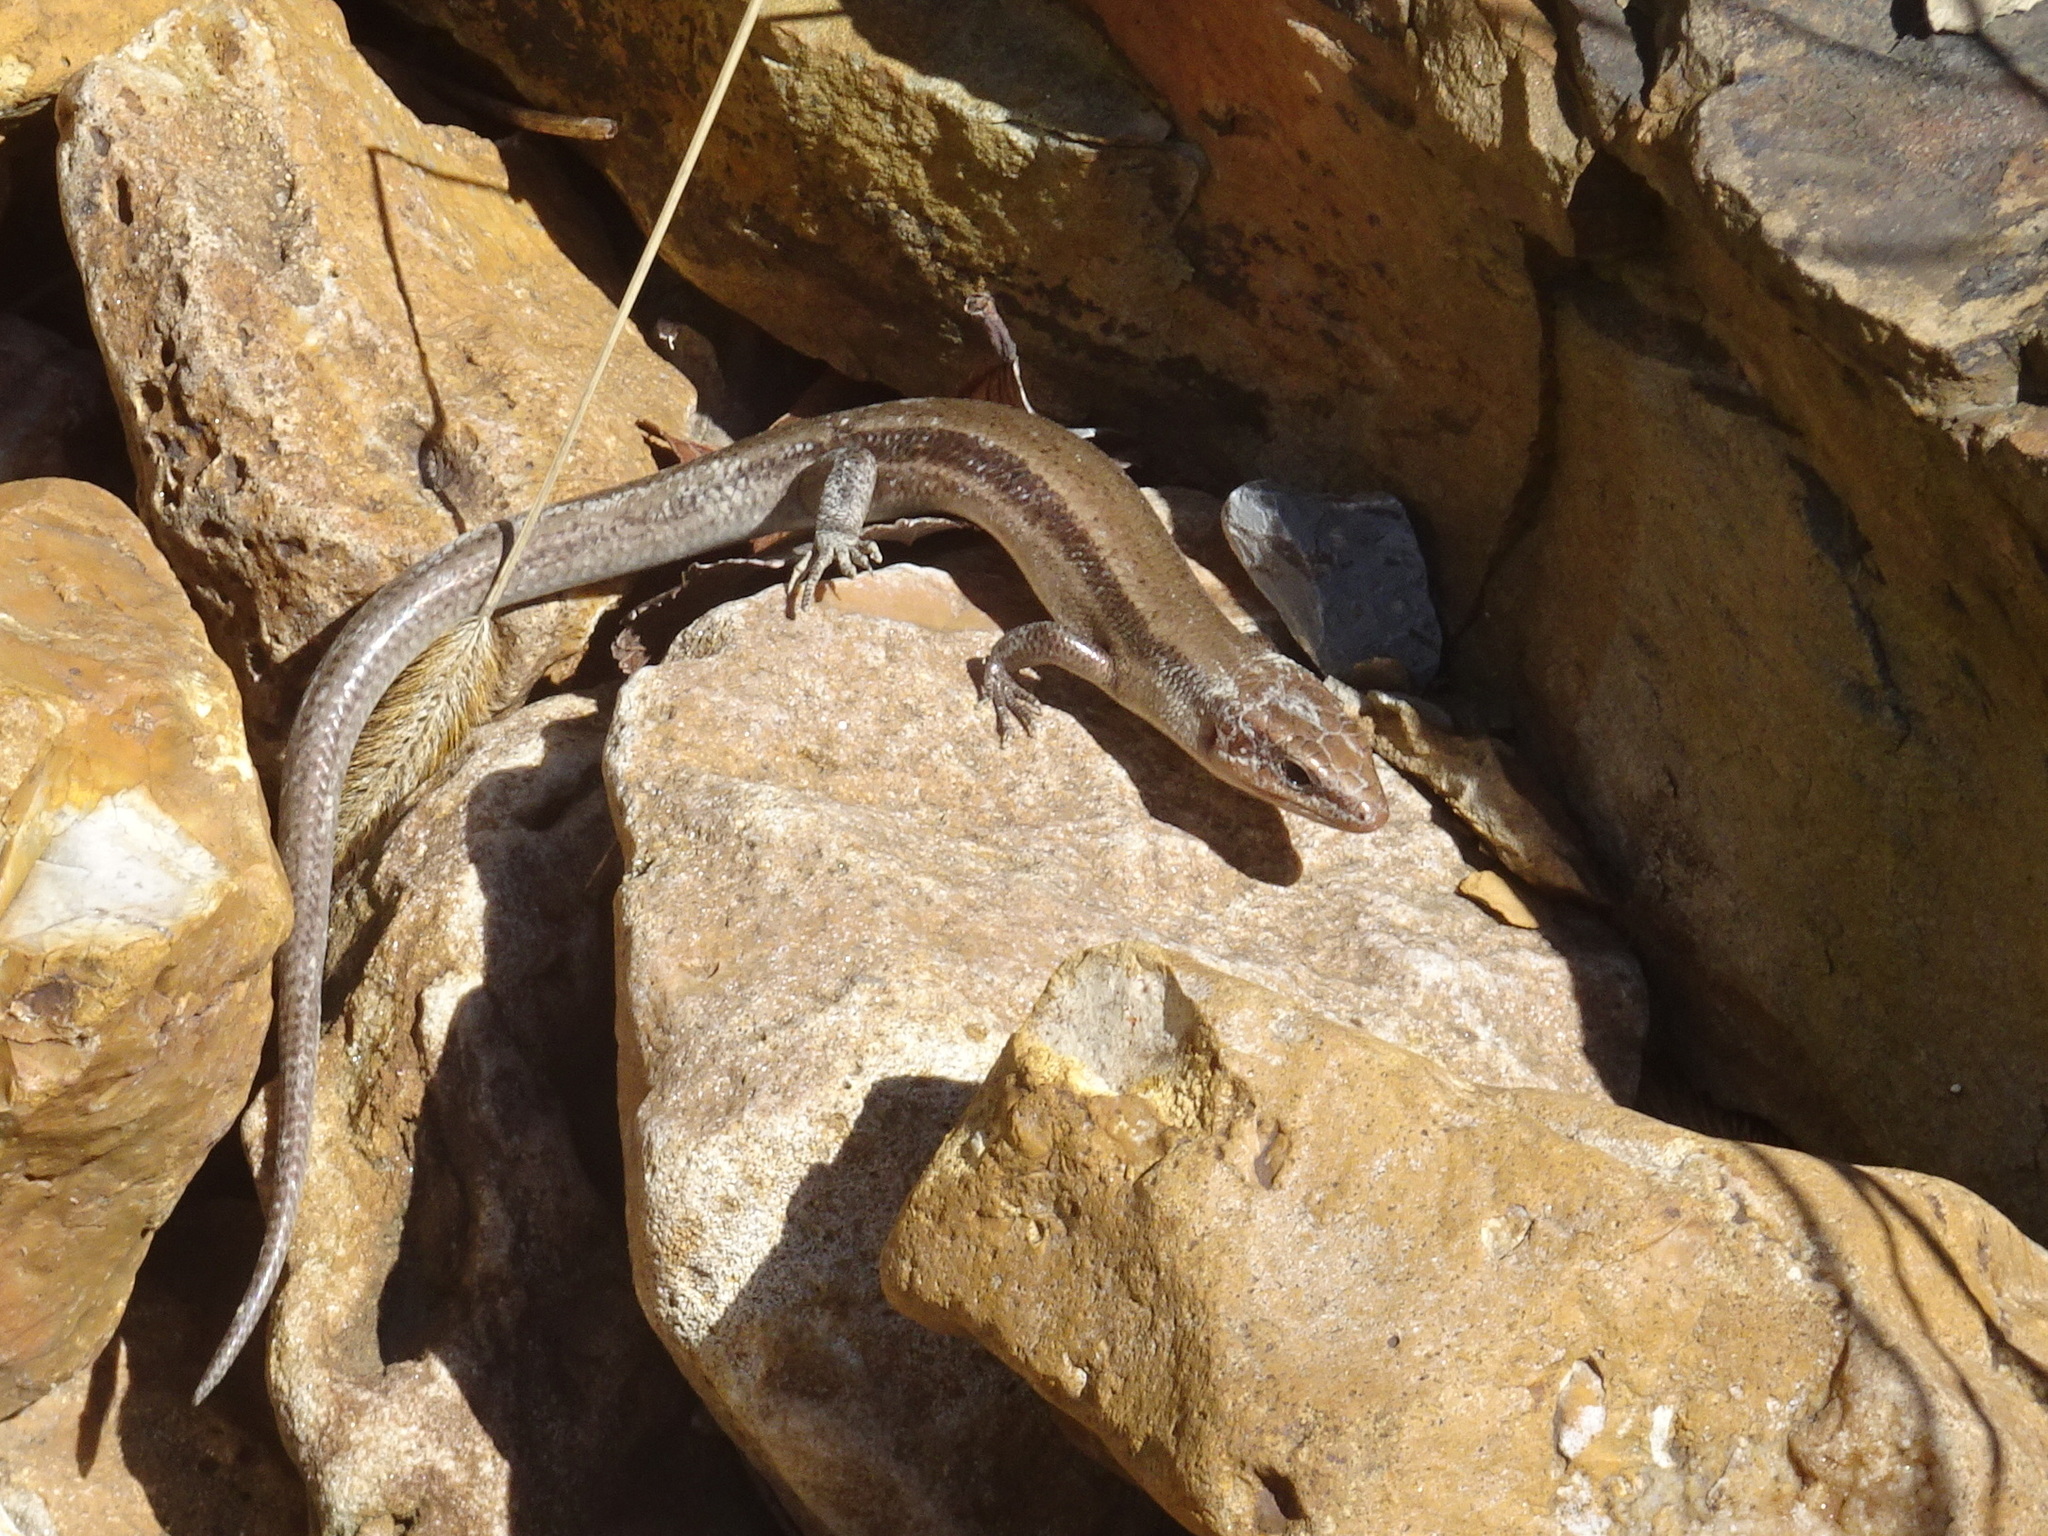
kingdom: Animalia
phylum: Chordata
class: Squamata
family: Scincidae
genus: Plestiodon
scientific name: Plestiodon fasciatus
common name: Five-lined skink
